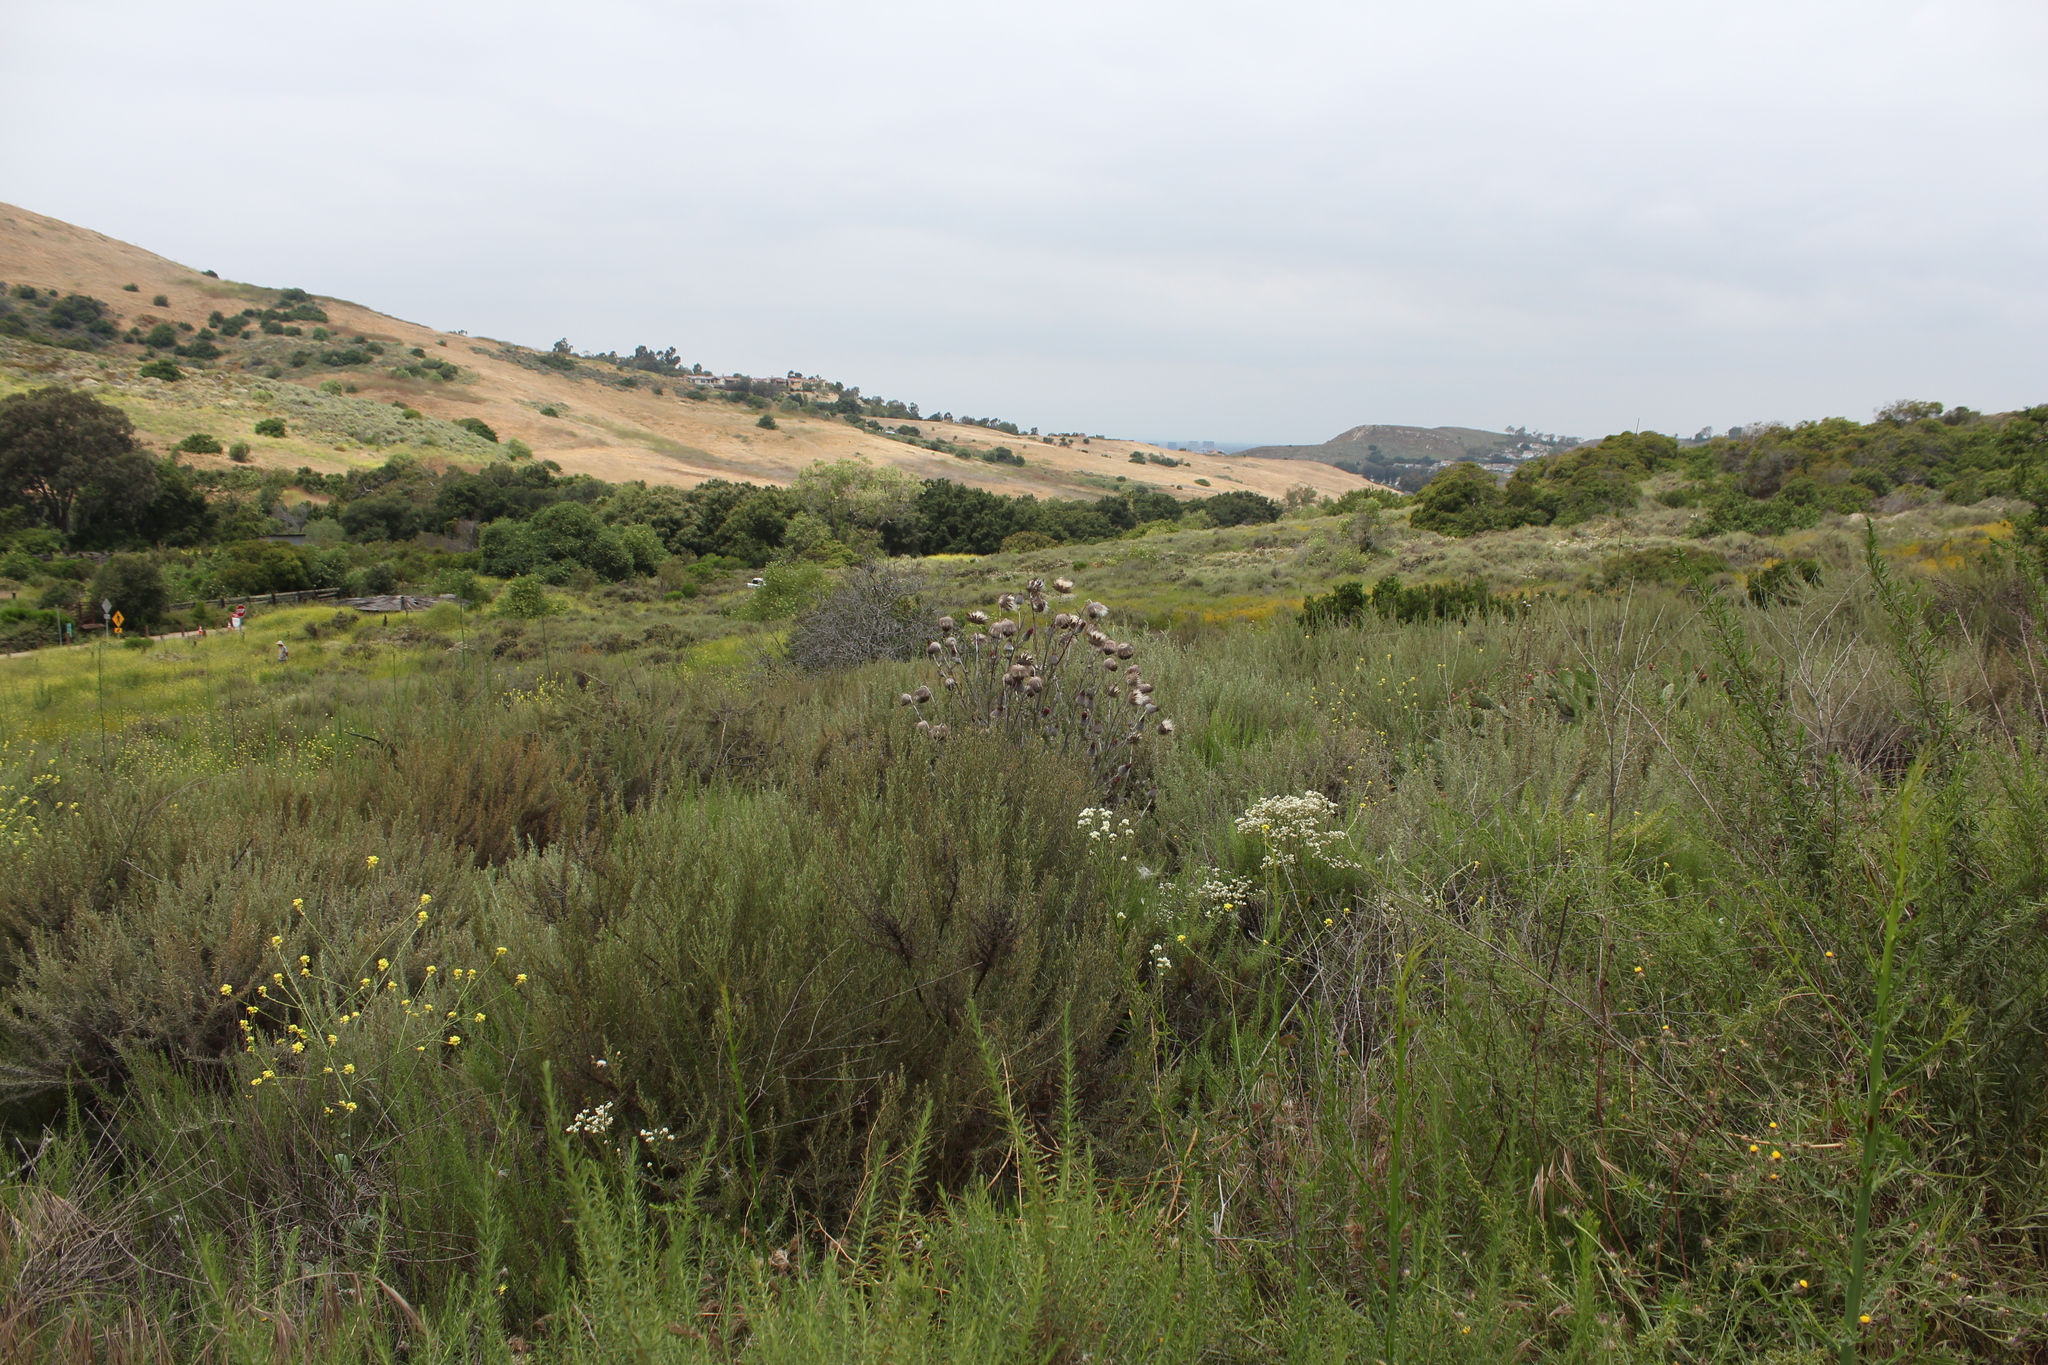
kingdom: Plantae
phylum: Tracheophyta
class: Magnoliopsida
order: Asterales
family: Asteraceae
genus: Cirsium
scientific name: Cirsium occidentale
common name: Western thistle
